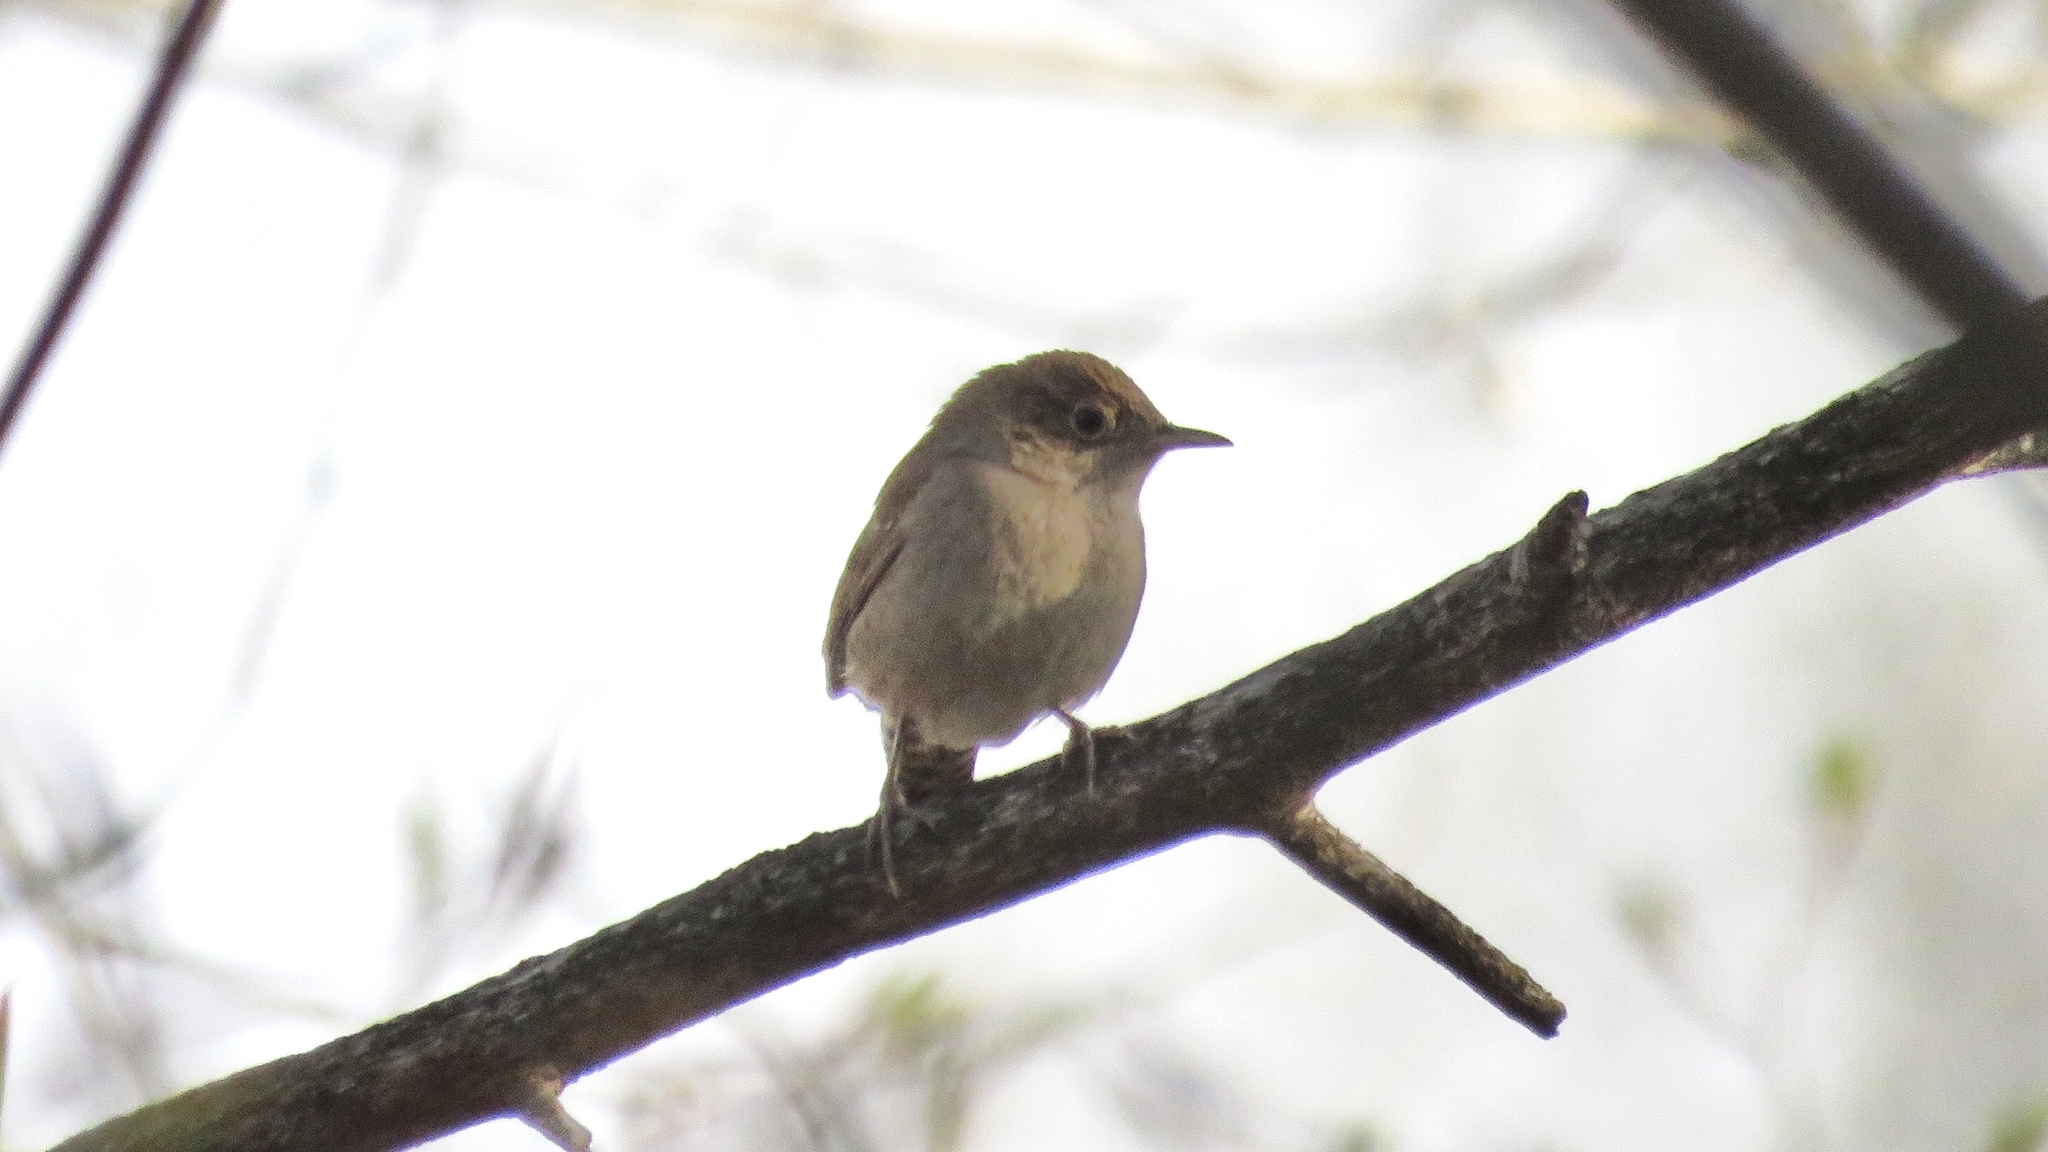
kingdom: Animalia
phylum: Chordata
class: Aves
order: Passeriformes
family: Troglodytidae
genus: Troglodytes
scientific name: Troglodytes aedon
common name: House wren
